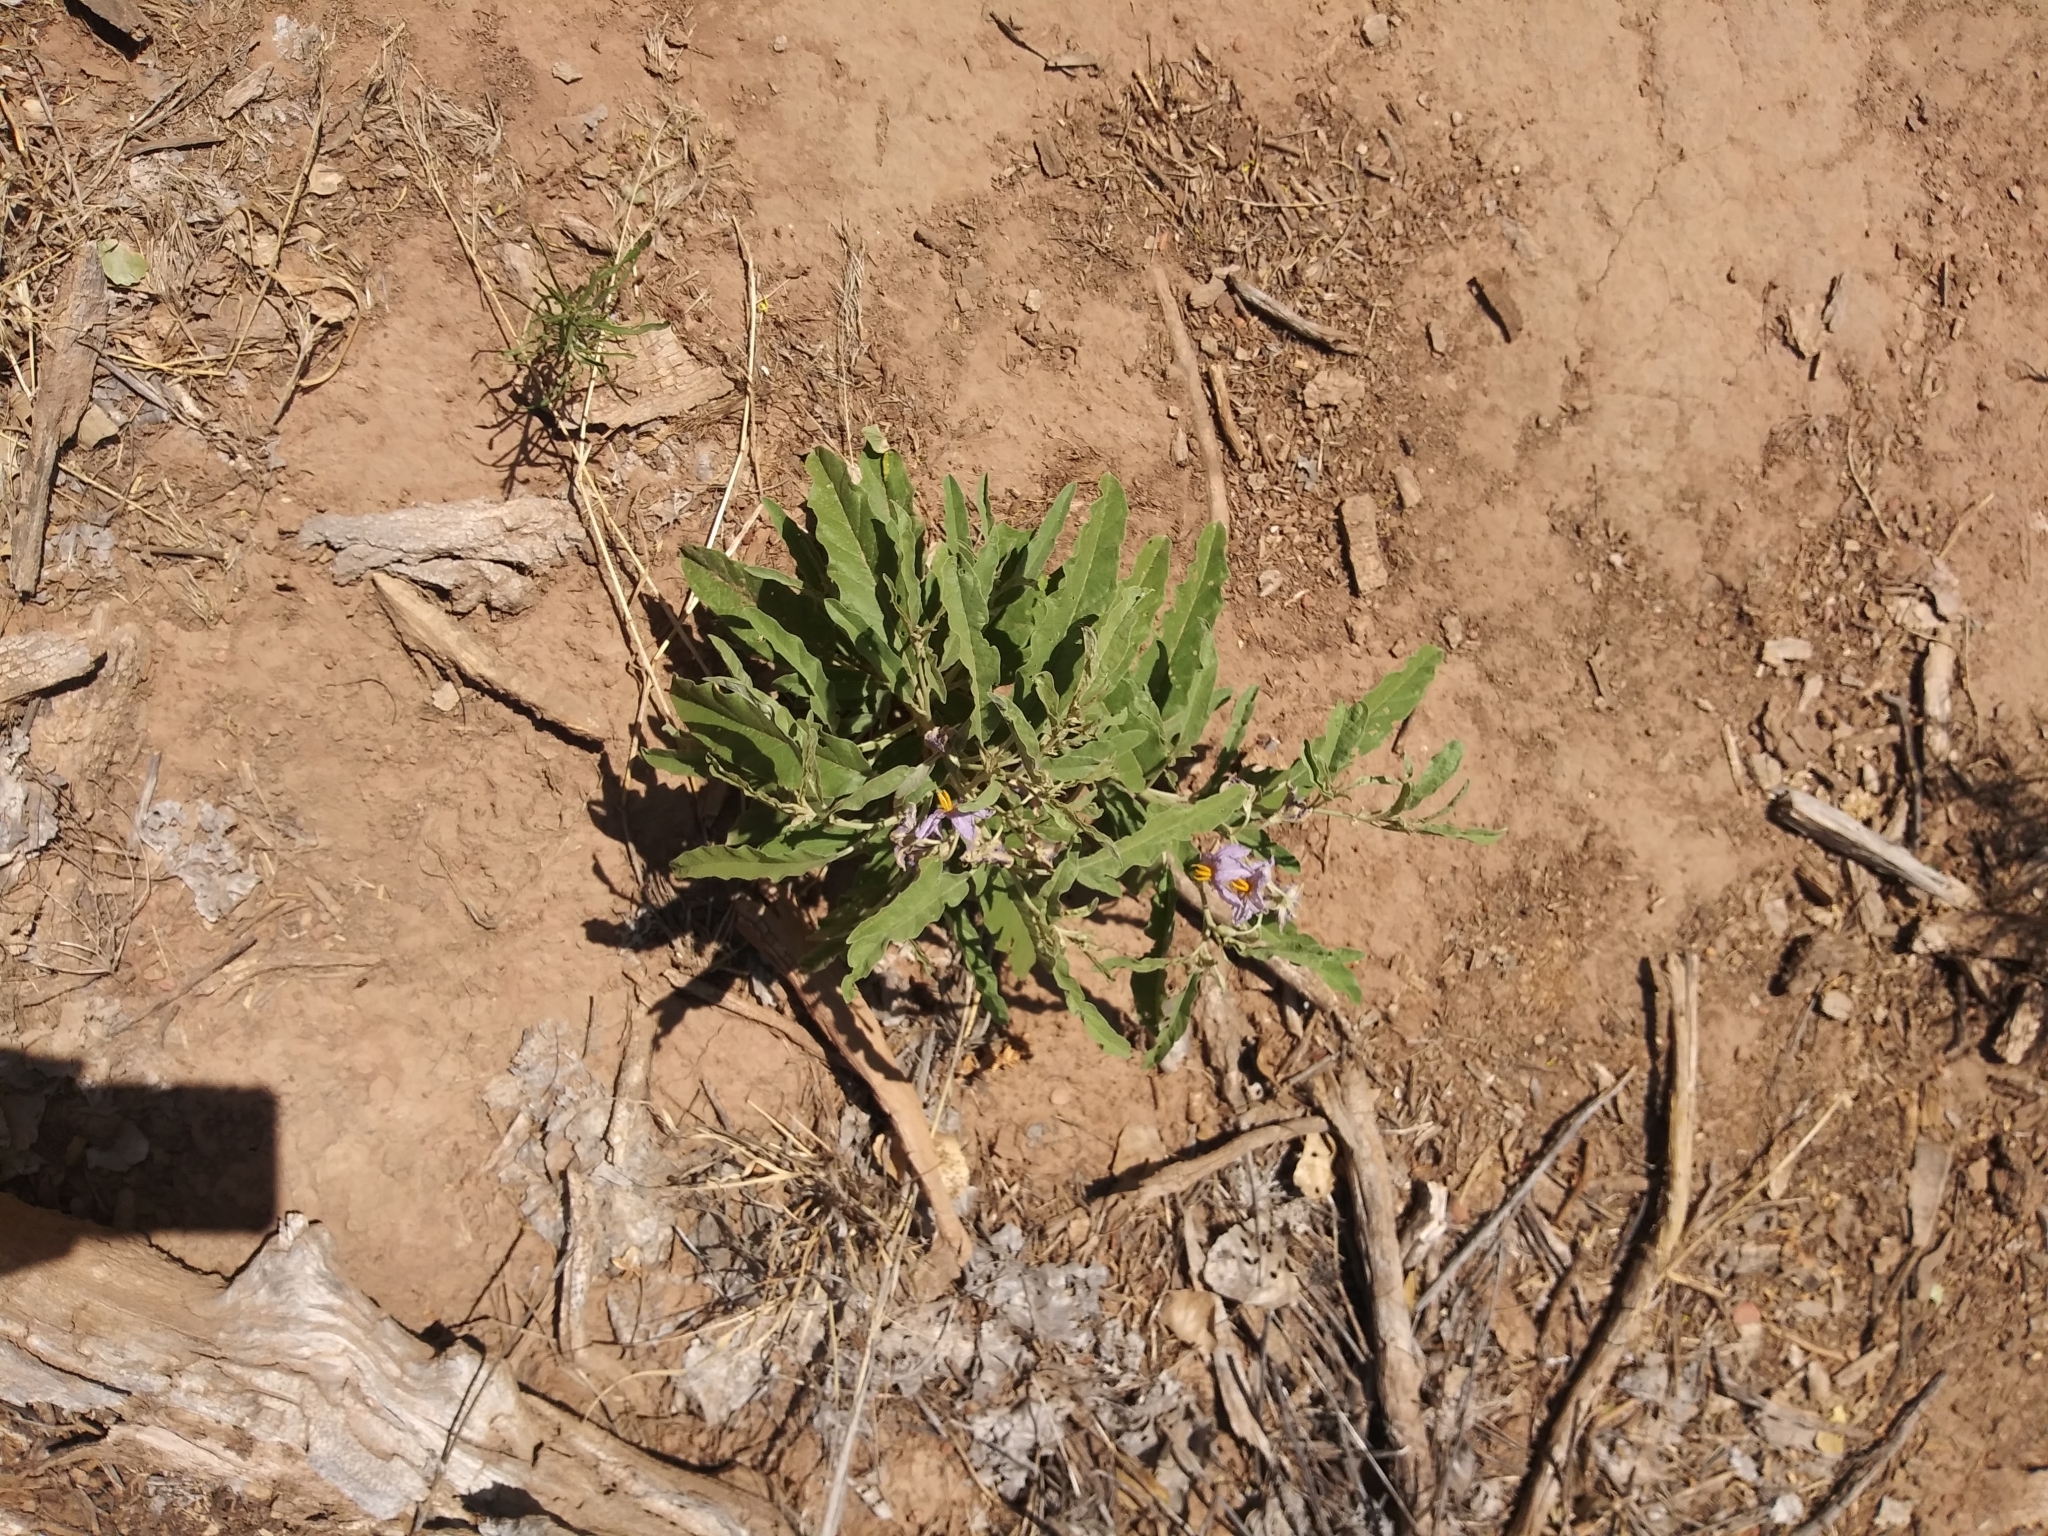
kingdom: Plantae
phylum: Tracheophyta
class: Magnoliopsida
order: Solanales
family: Solanaceae
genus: Solanum
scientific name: Solanum elaeagnifolium
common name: Silverleaf nightshade
